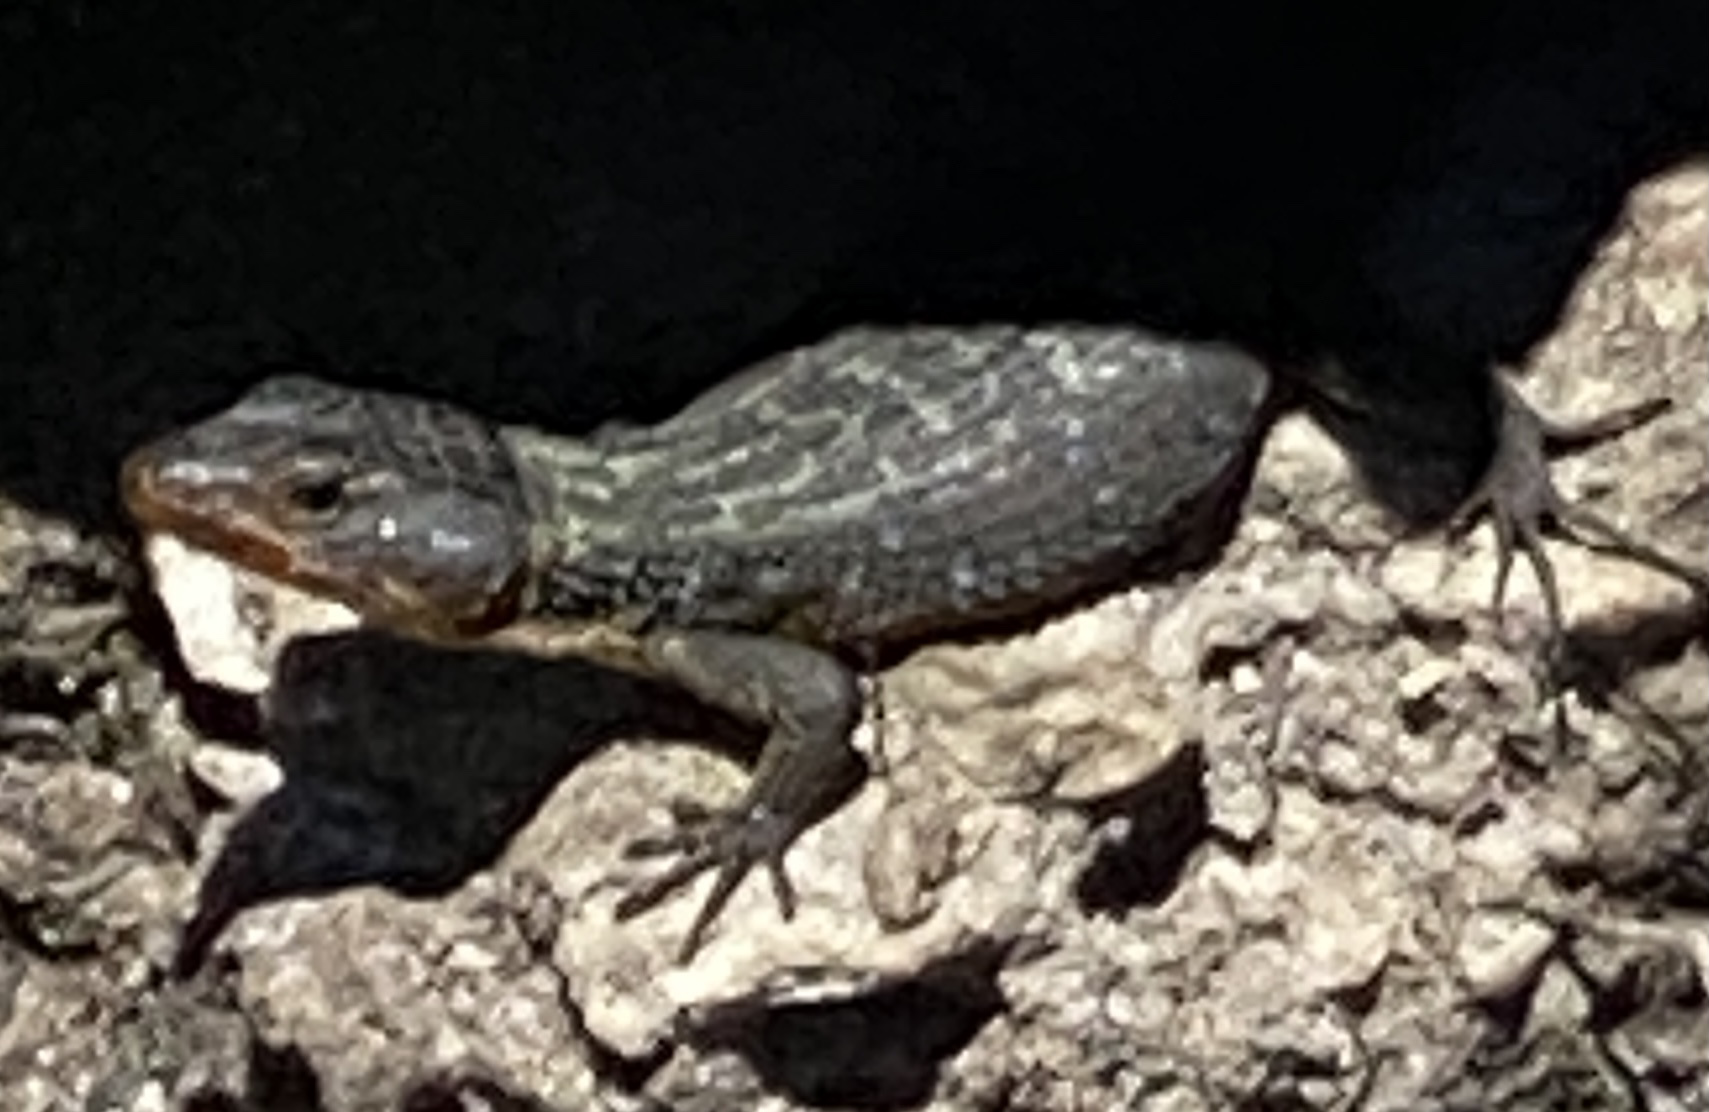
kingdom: Animalia
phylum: Chordata
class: Squamata
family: Cordylidae
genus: Ninurta
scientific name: Ninurta coeruleopunctatus
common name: Blue-spotted girdled lizard
